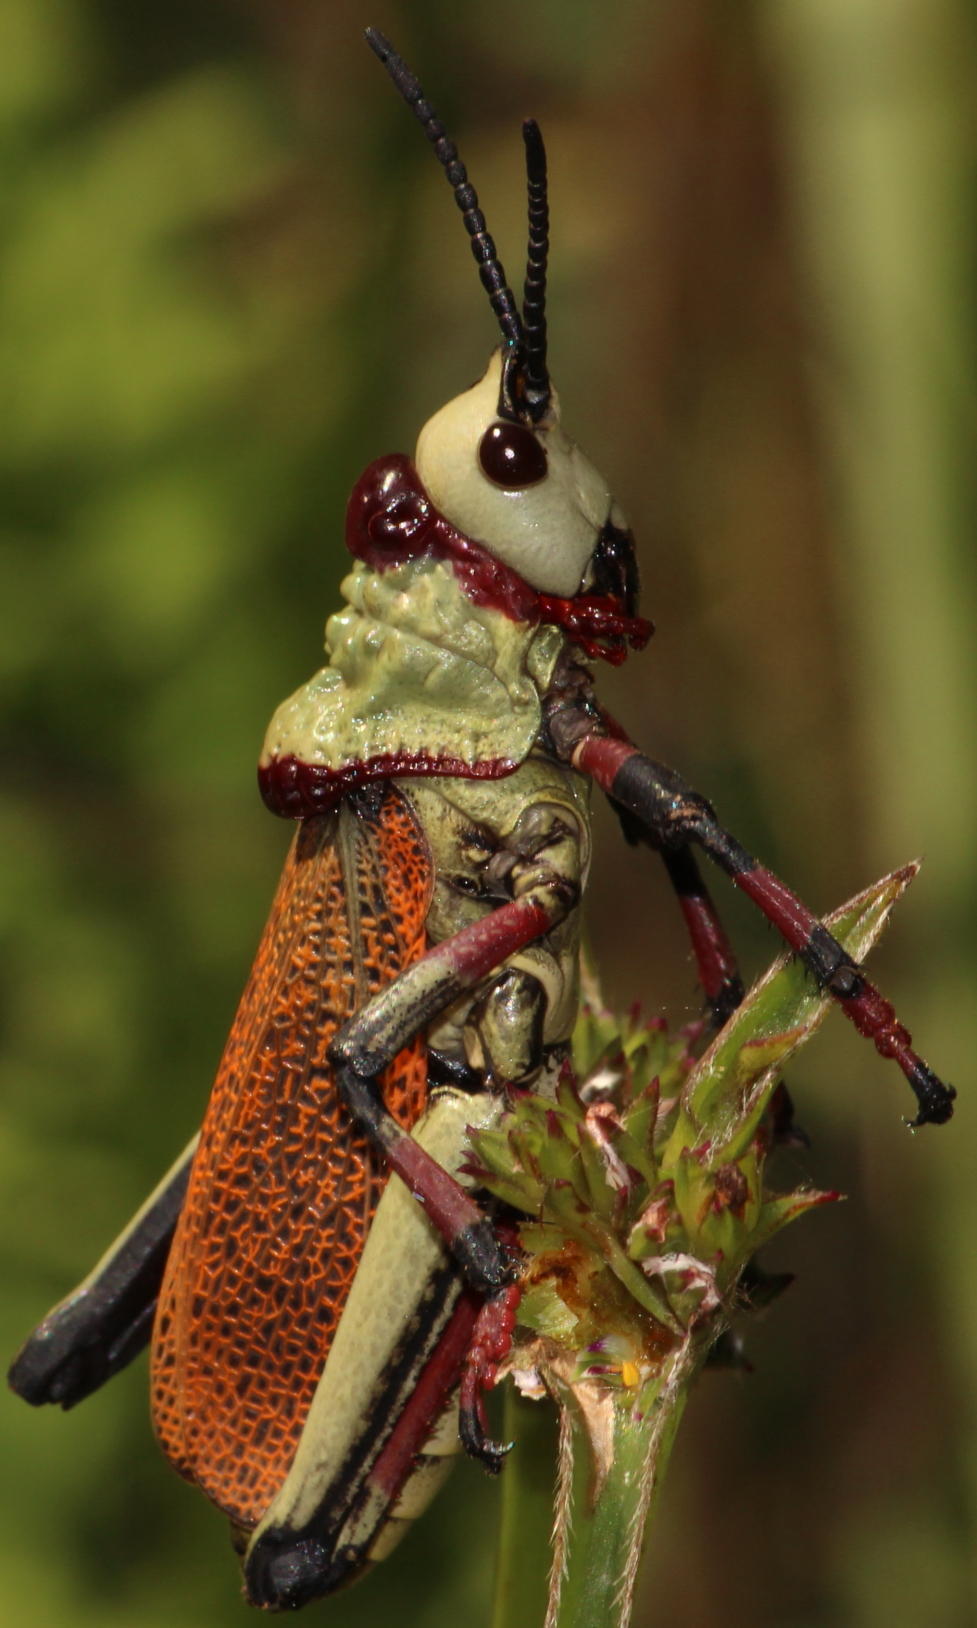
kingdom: Animalia
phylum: Arthropoda
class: Insecta
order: Orthoptera
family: Pyrgomorphidae
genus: Dictyophorus
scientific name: Dictyophorus spumans
